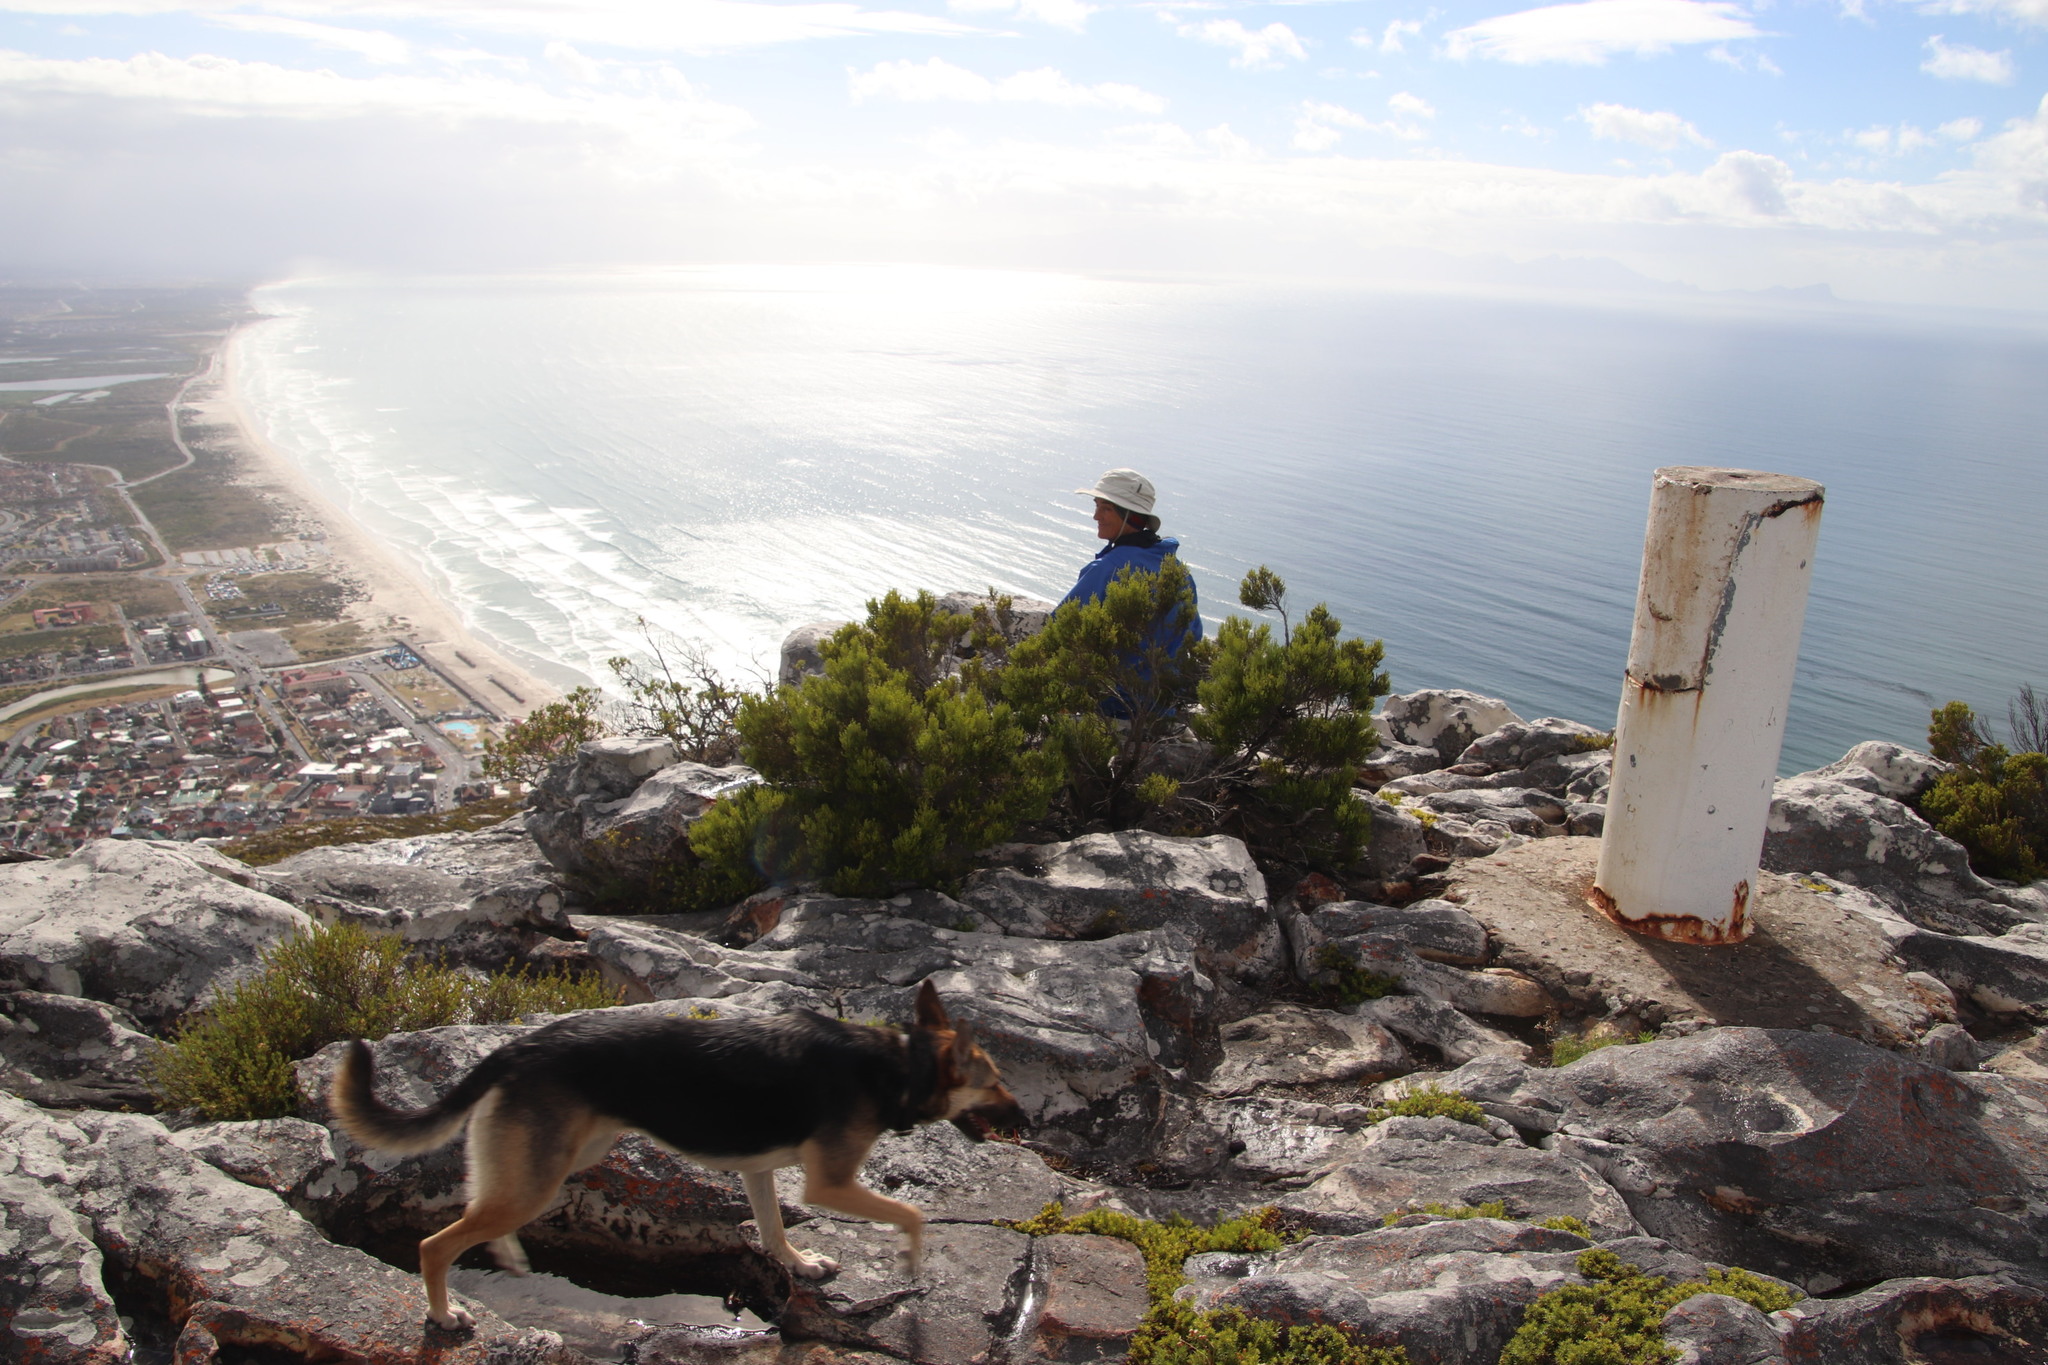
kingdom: Plantae
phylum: Tracheophyta
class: Magnoliopsida
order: Ericales
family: Ericaceae
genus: Erica
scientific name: Erica tristis
